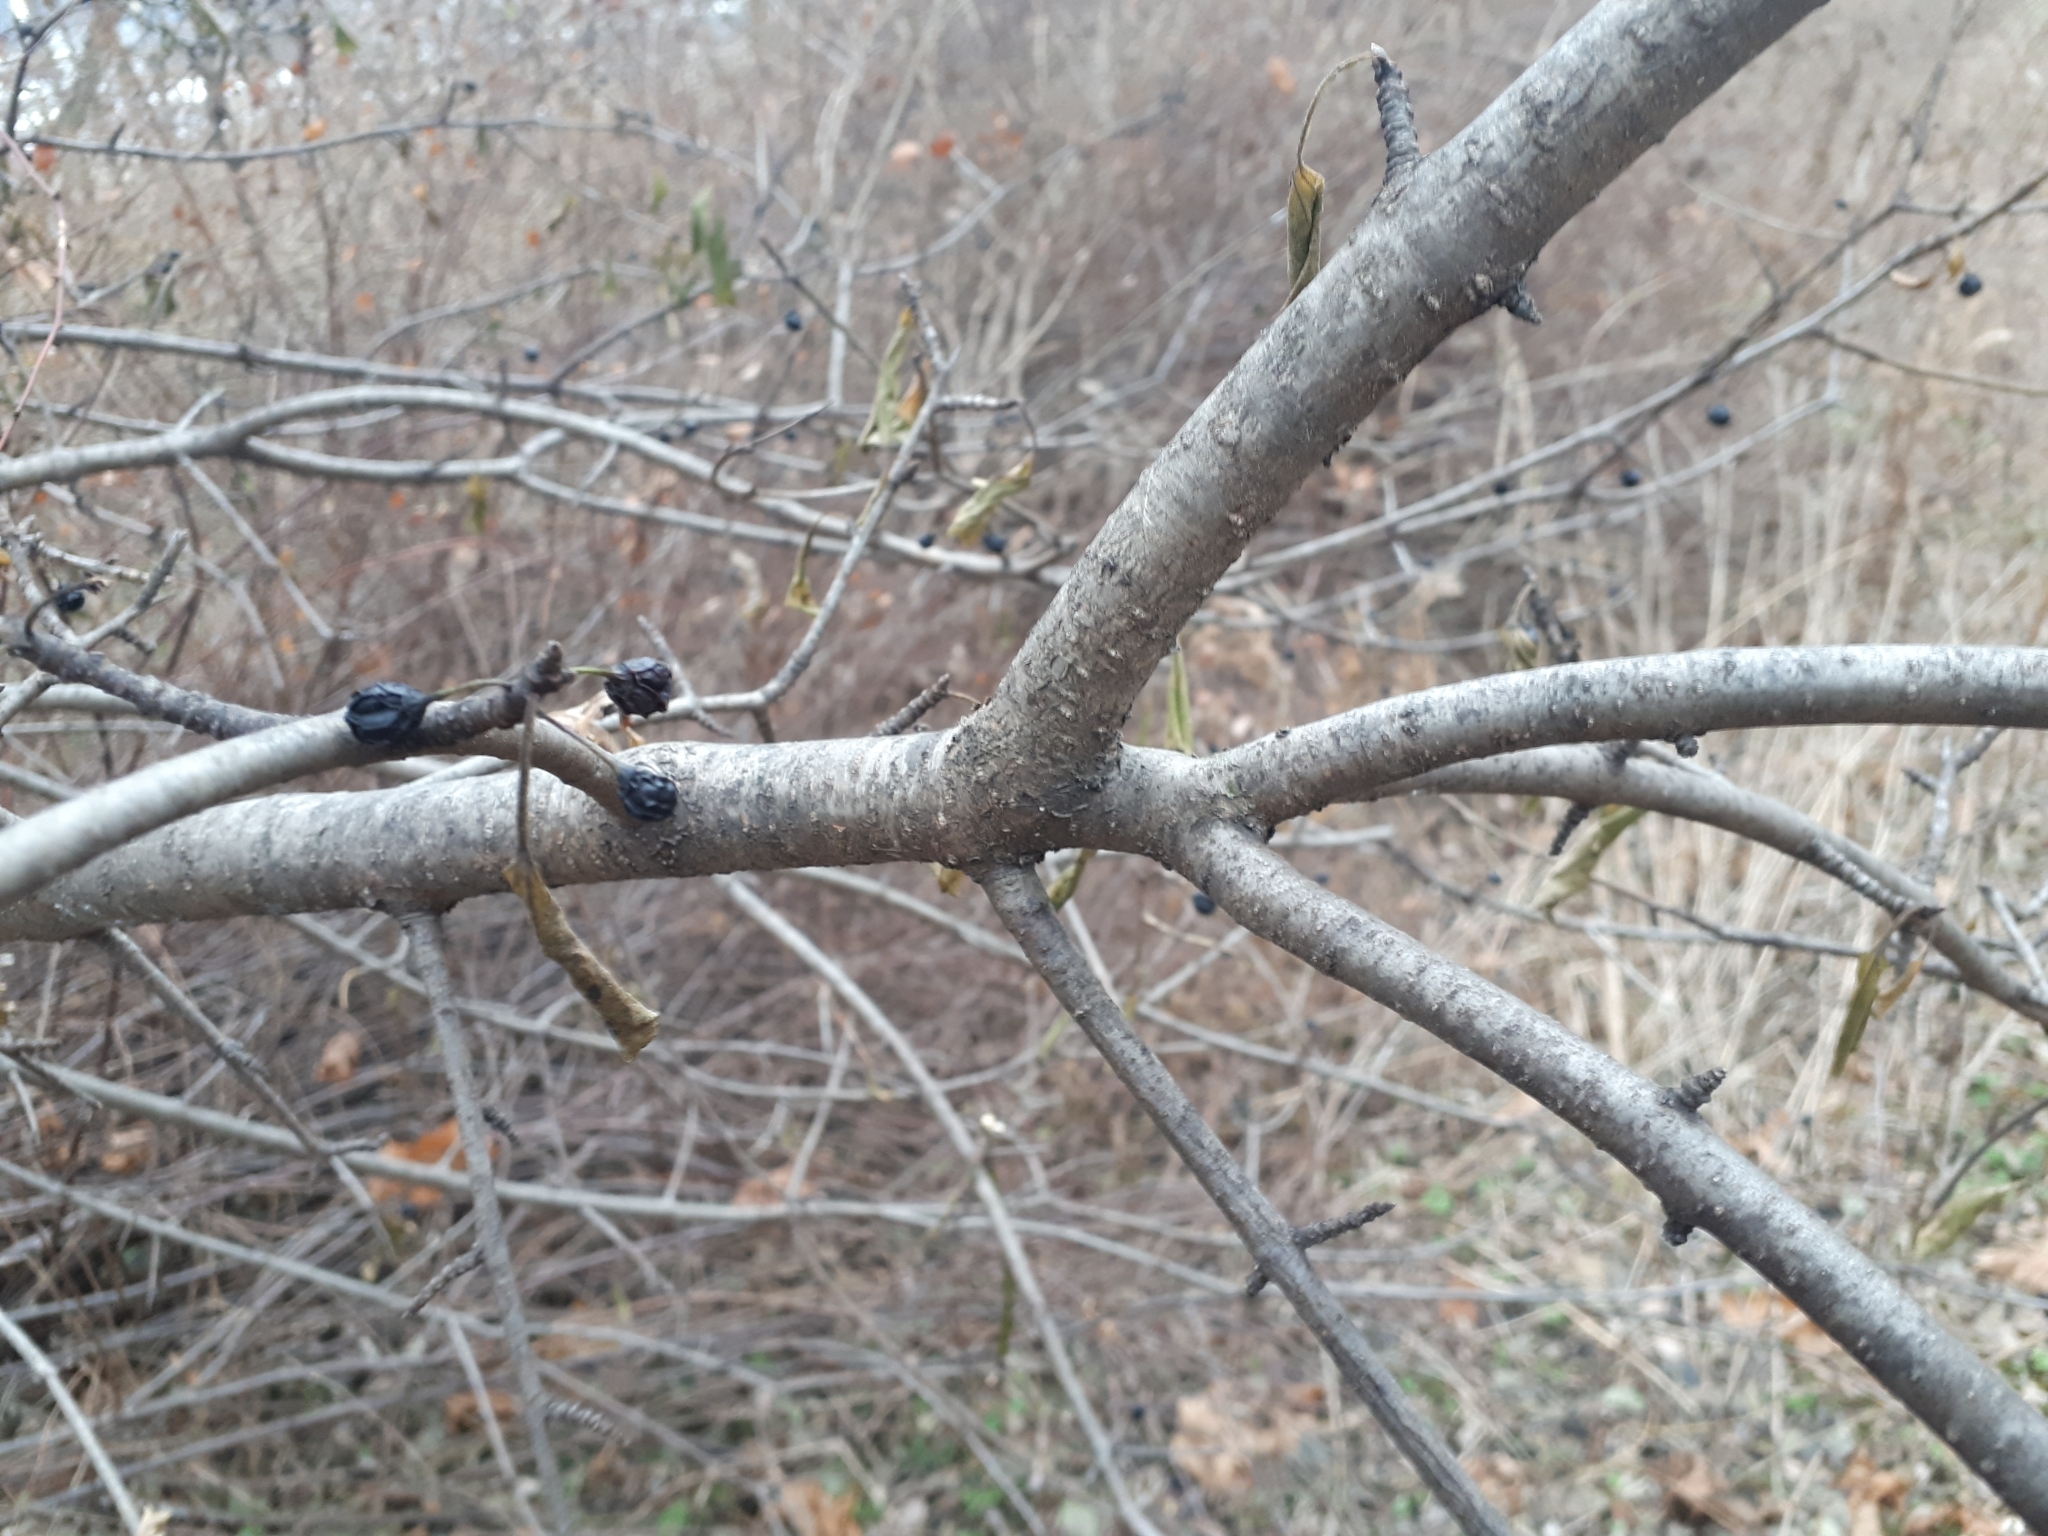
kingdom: Plantae
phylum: Tracheophyta
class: Magnoliopsida
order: Rosales
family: Rhamnaceae
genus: Rhamnus
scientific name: Rhamnus cathartica
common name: Common buckthorn
